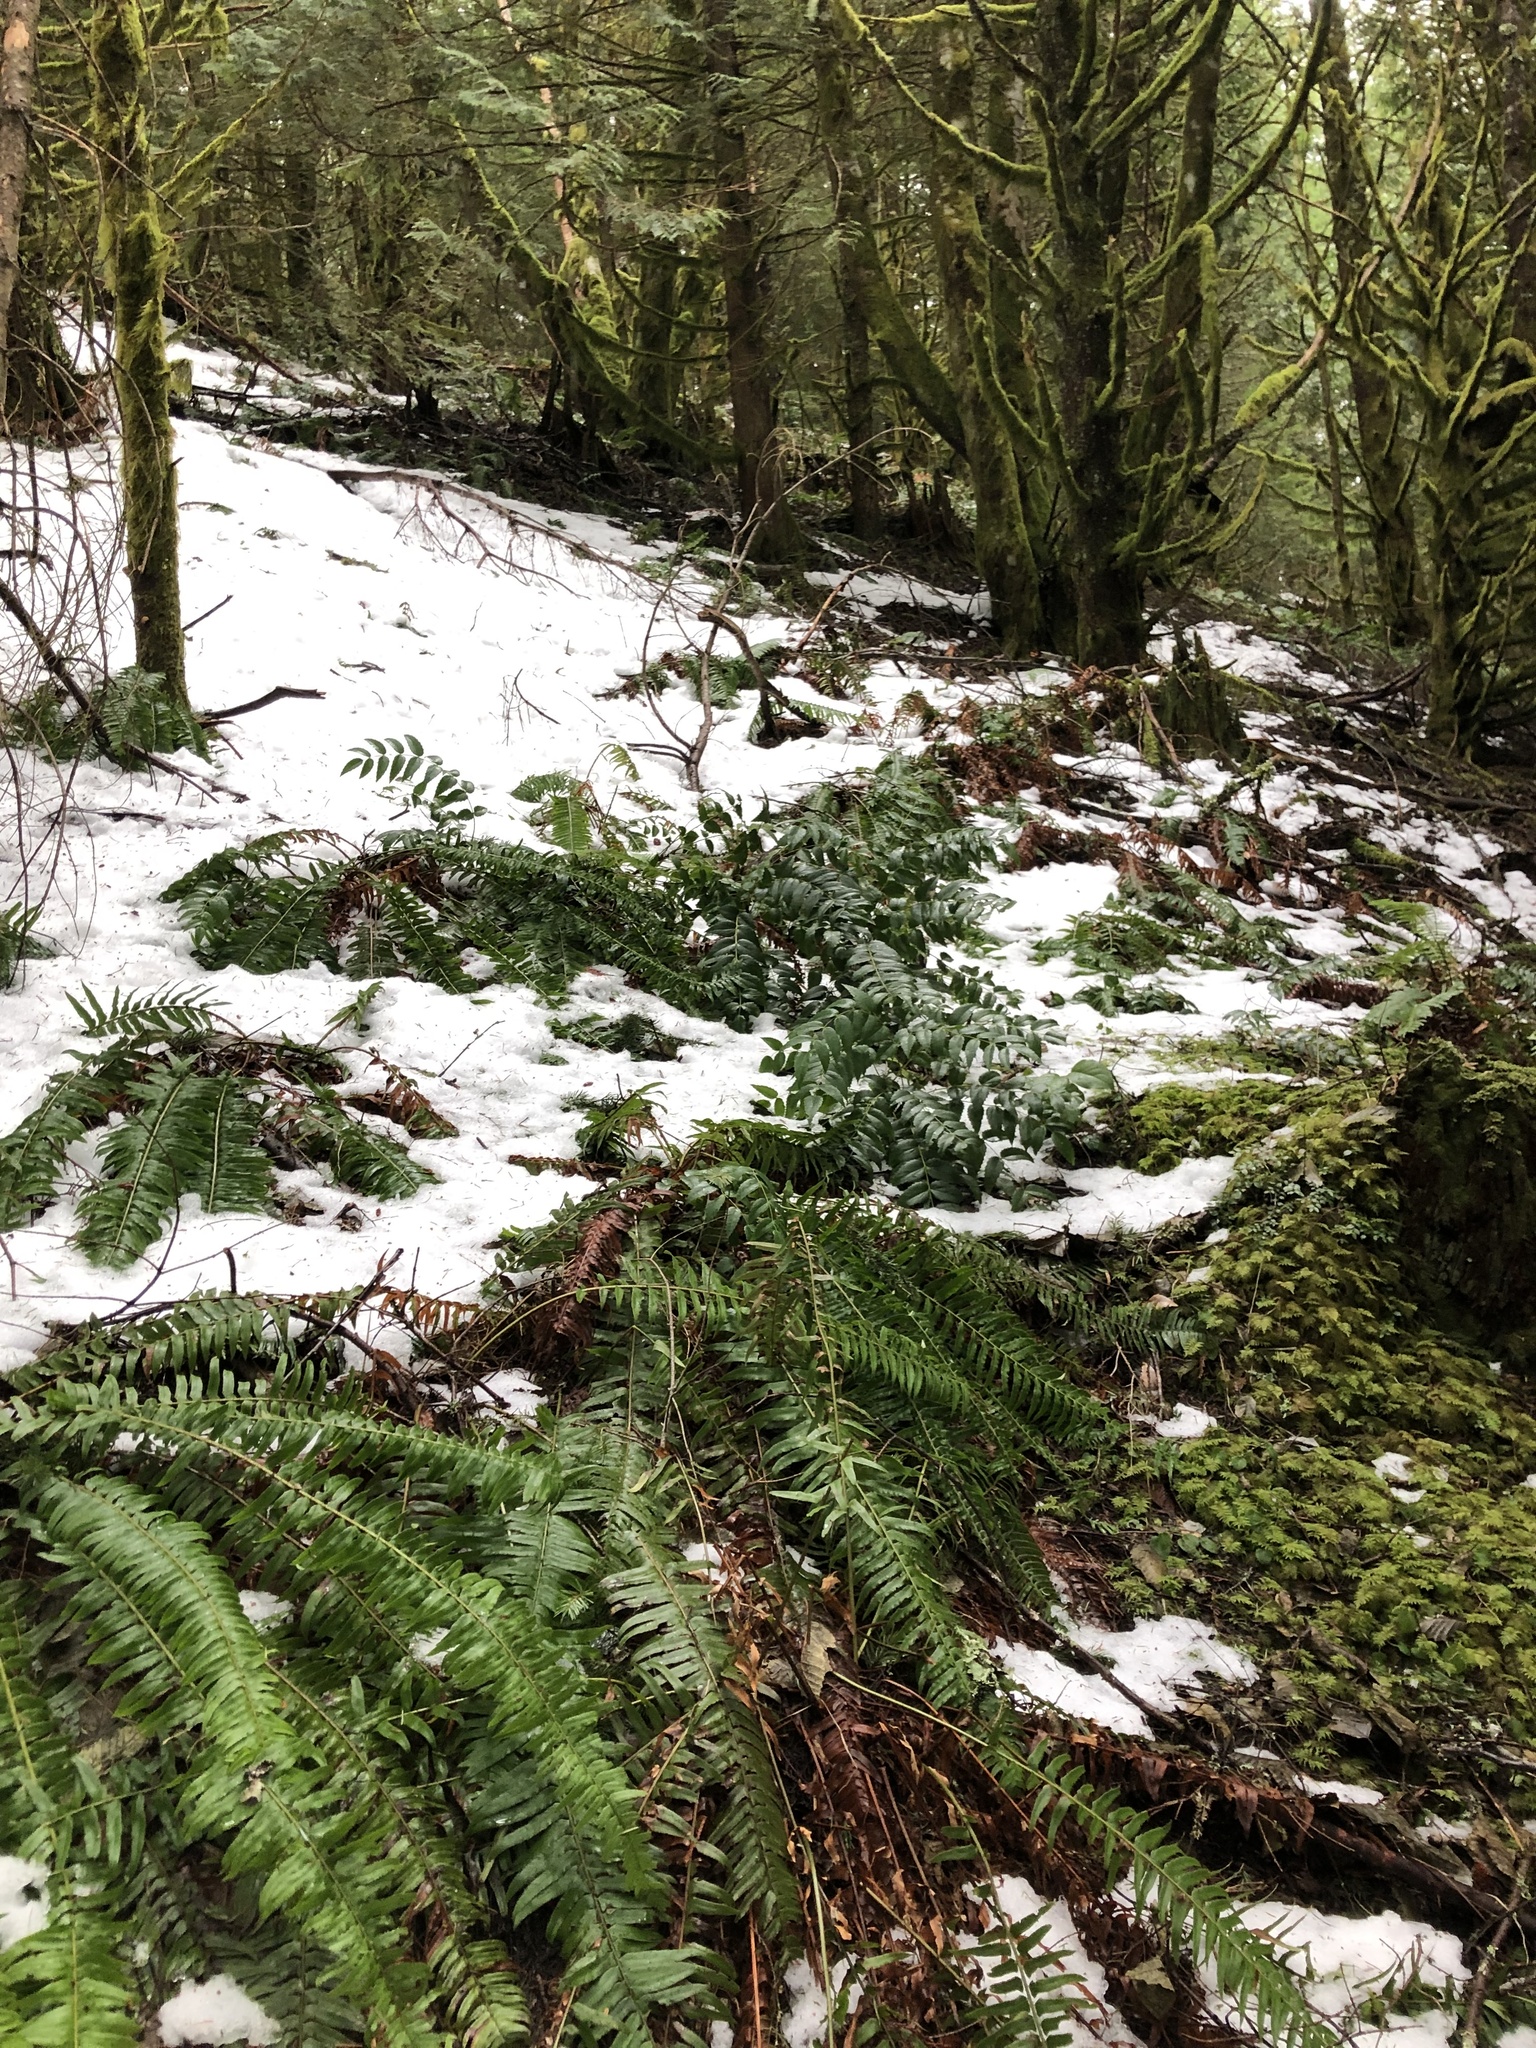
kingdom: Plantae
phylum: Tracheophyta
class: Magnoliopsida
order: Ranunculales
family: Berberidaceae
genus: Mahonia
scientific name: Mahonia nervosa
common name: Cascade oregon-grape
